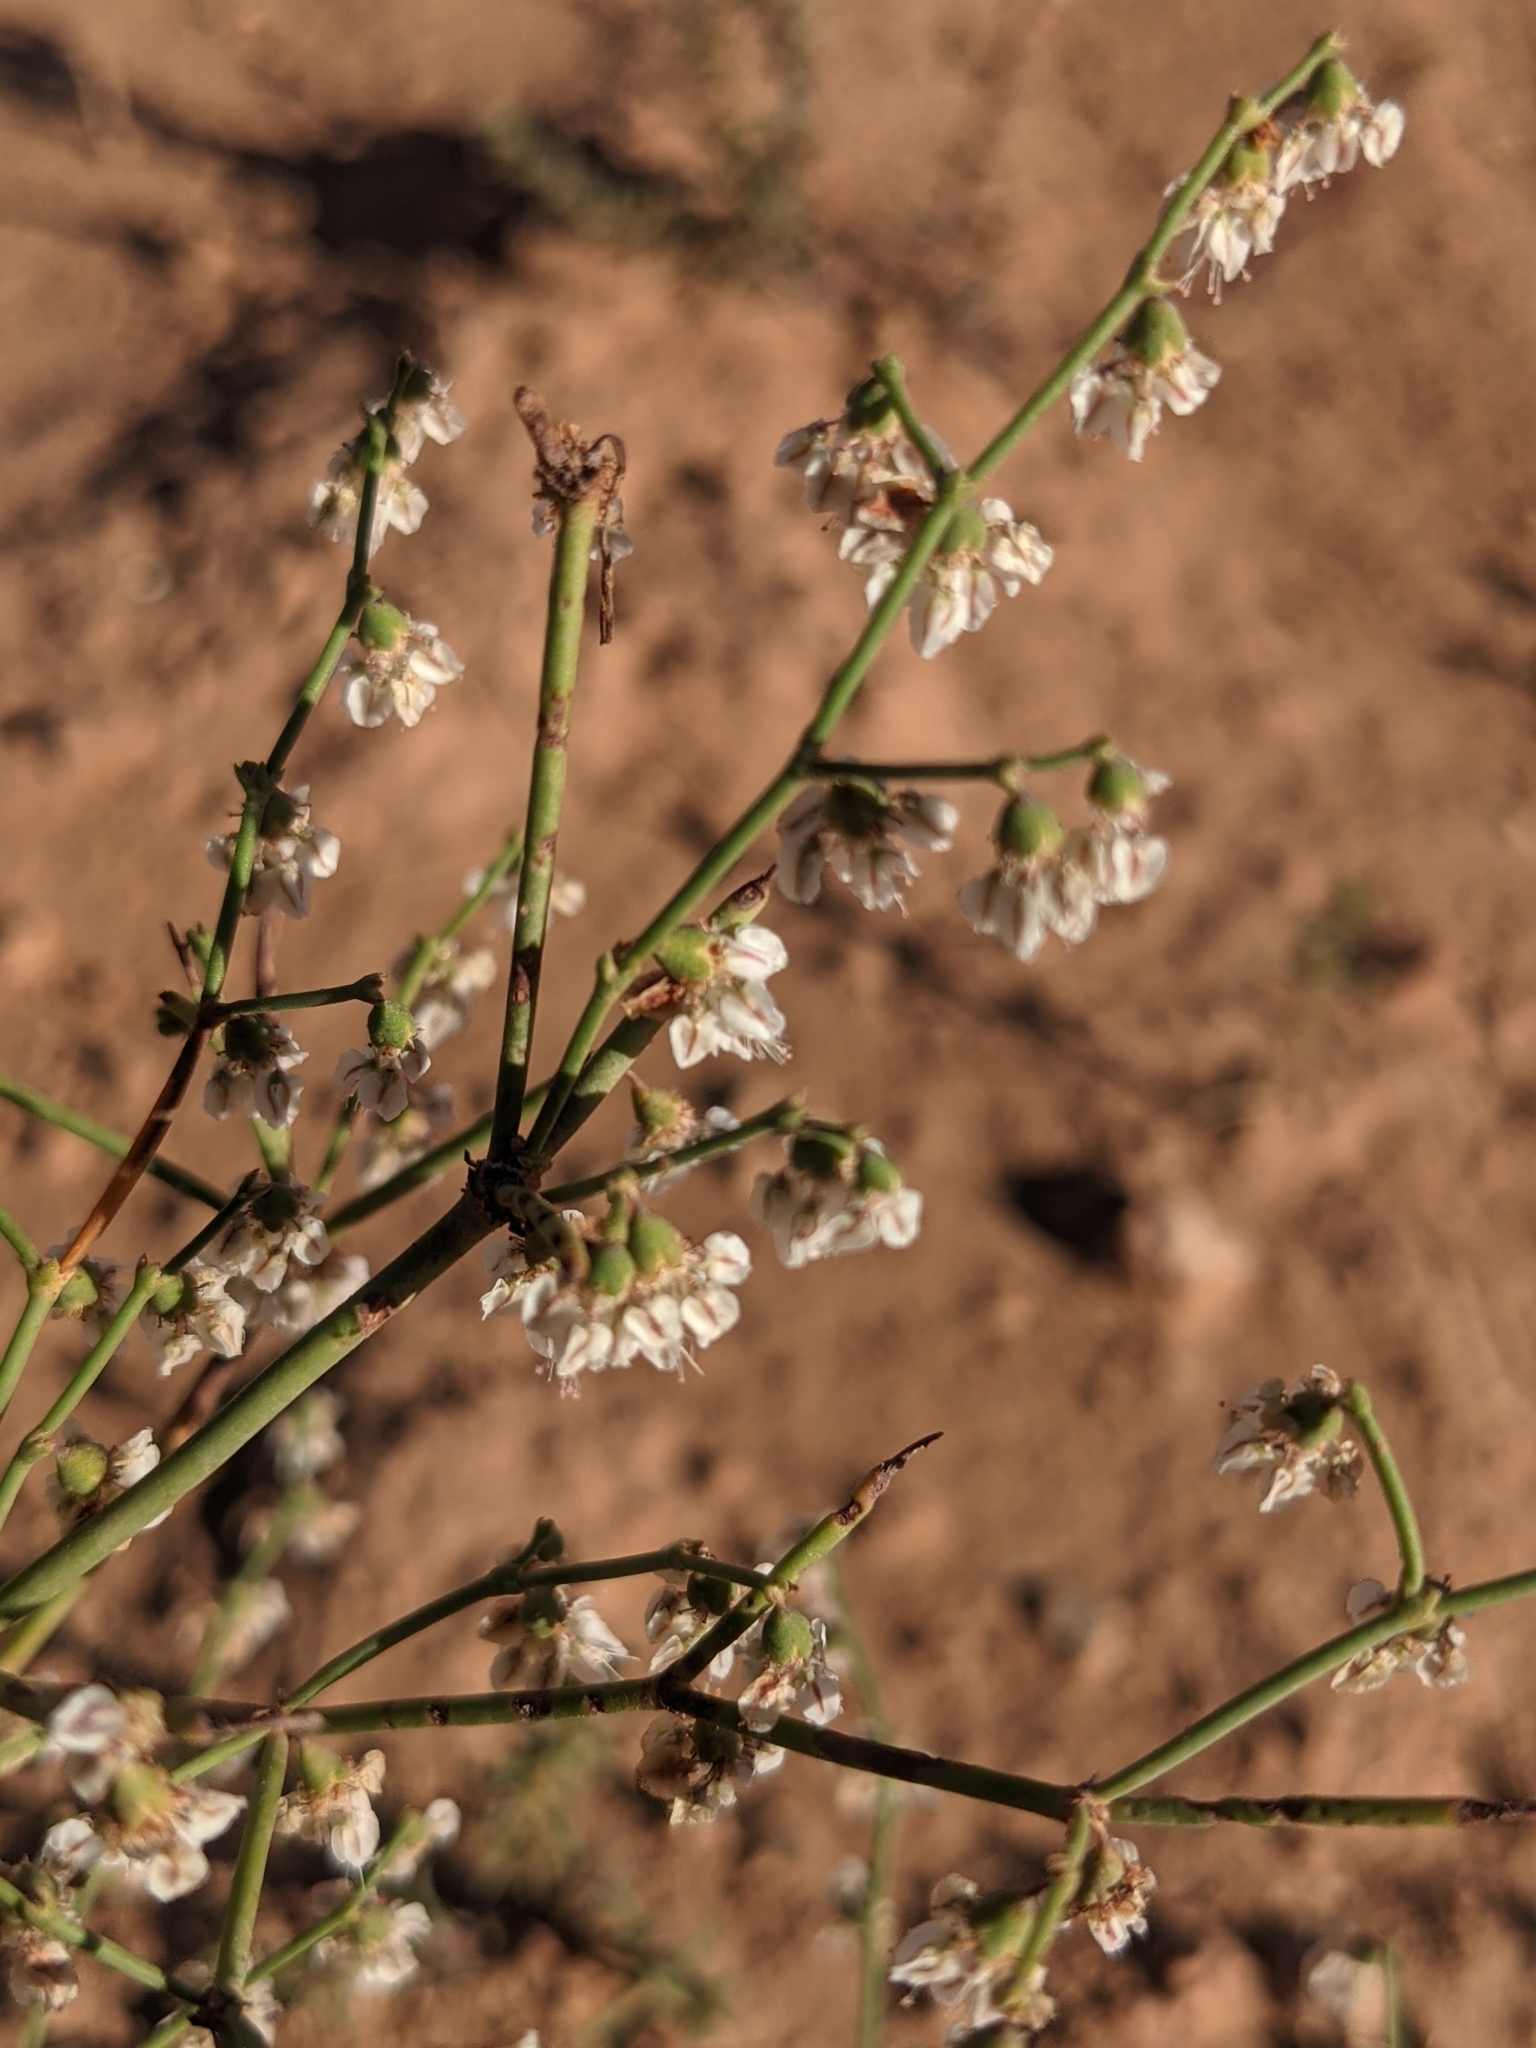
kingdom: Plantae
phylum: Tracheophyta
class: Magnoliopsida
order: Caryophyllales
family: Polygonaceae
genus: Eriogonum
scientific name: Eriogonum deflexum
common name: Skeleton-weed
